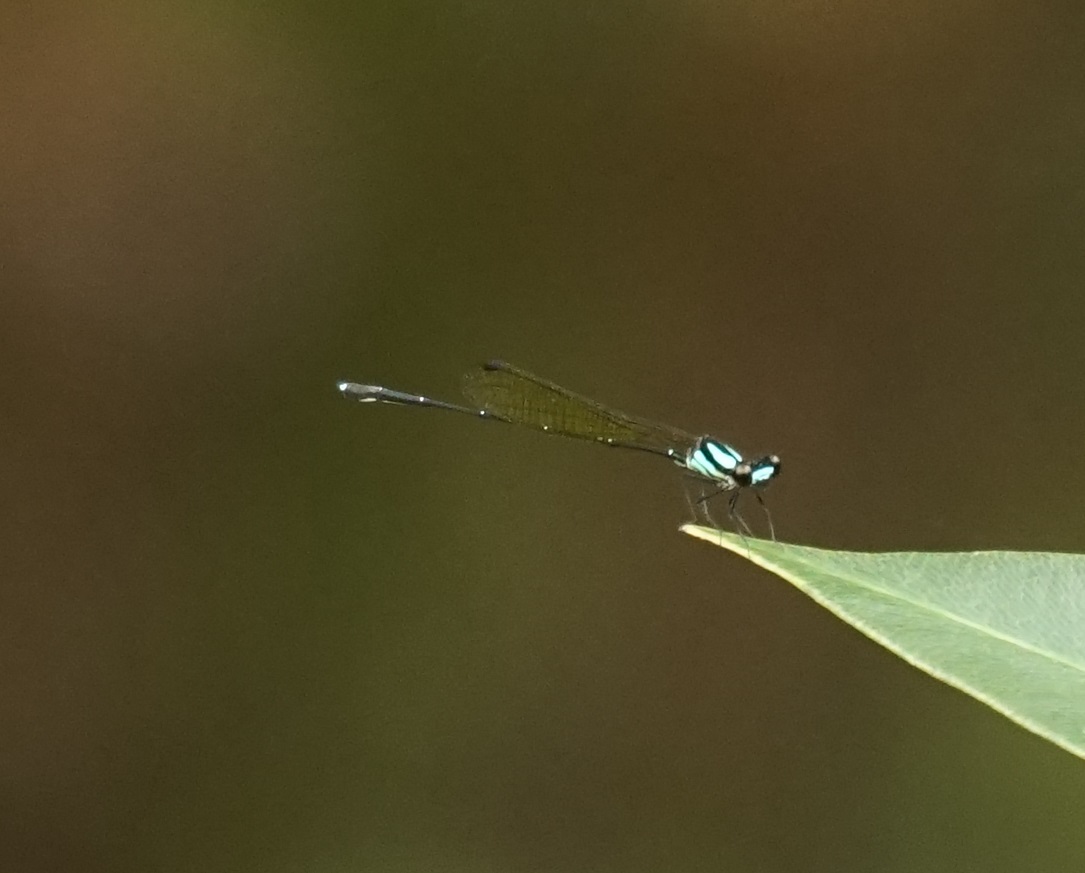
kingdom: Animalia
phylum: Arthropoda
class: Insecta
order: Odonata
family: Platycnemididae
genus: Nososticta
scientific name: Nososticta coelestina
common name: Green-blue threadtail
